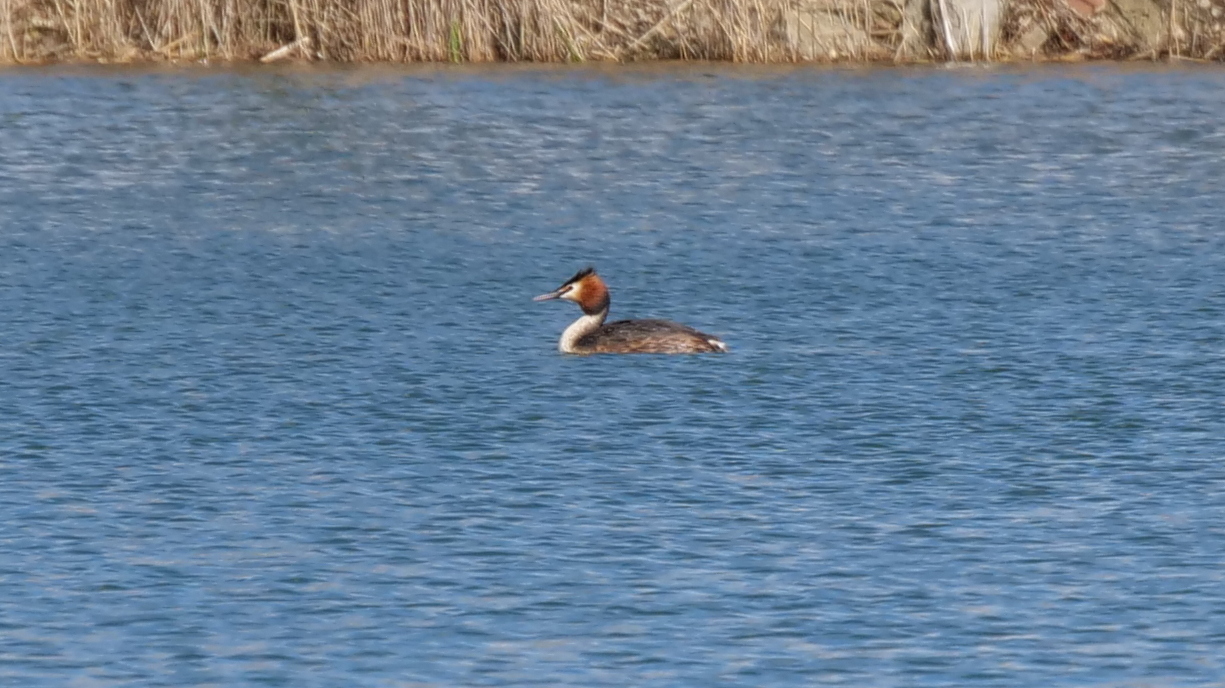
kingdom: Animalia
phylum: Chordata
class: Aves
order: Podicipediformes
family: Podicipedidae
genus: Podiceps
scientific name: Podiceps cristatus
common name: Great crested grebe
